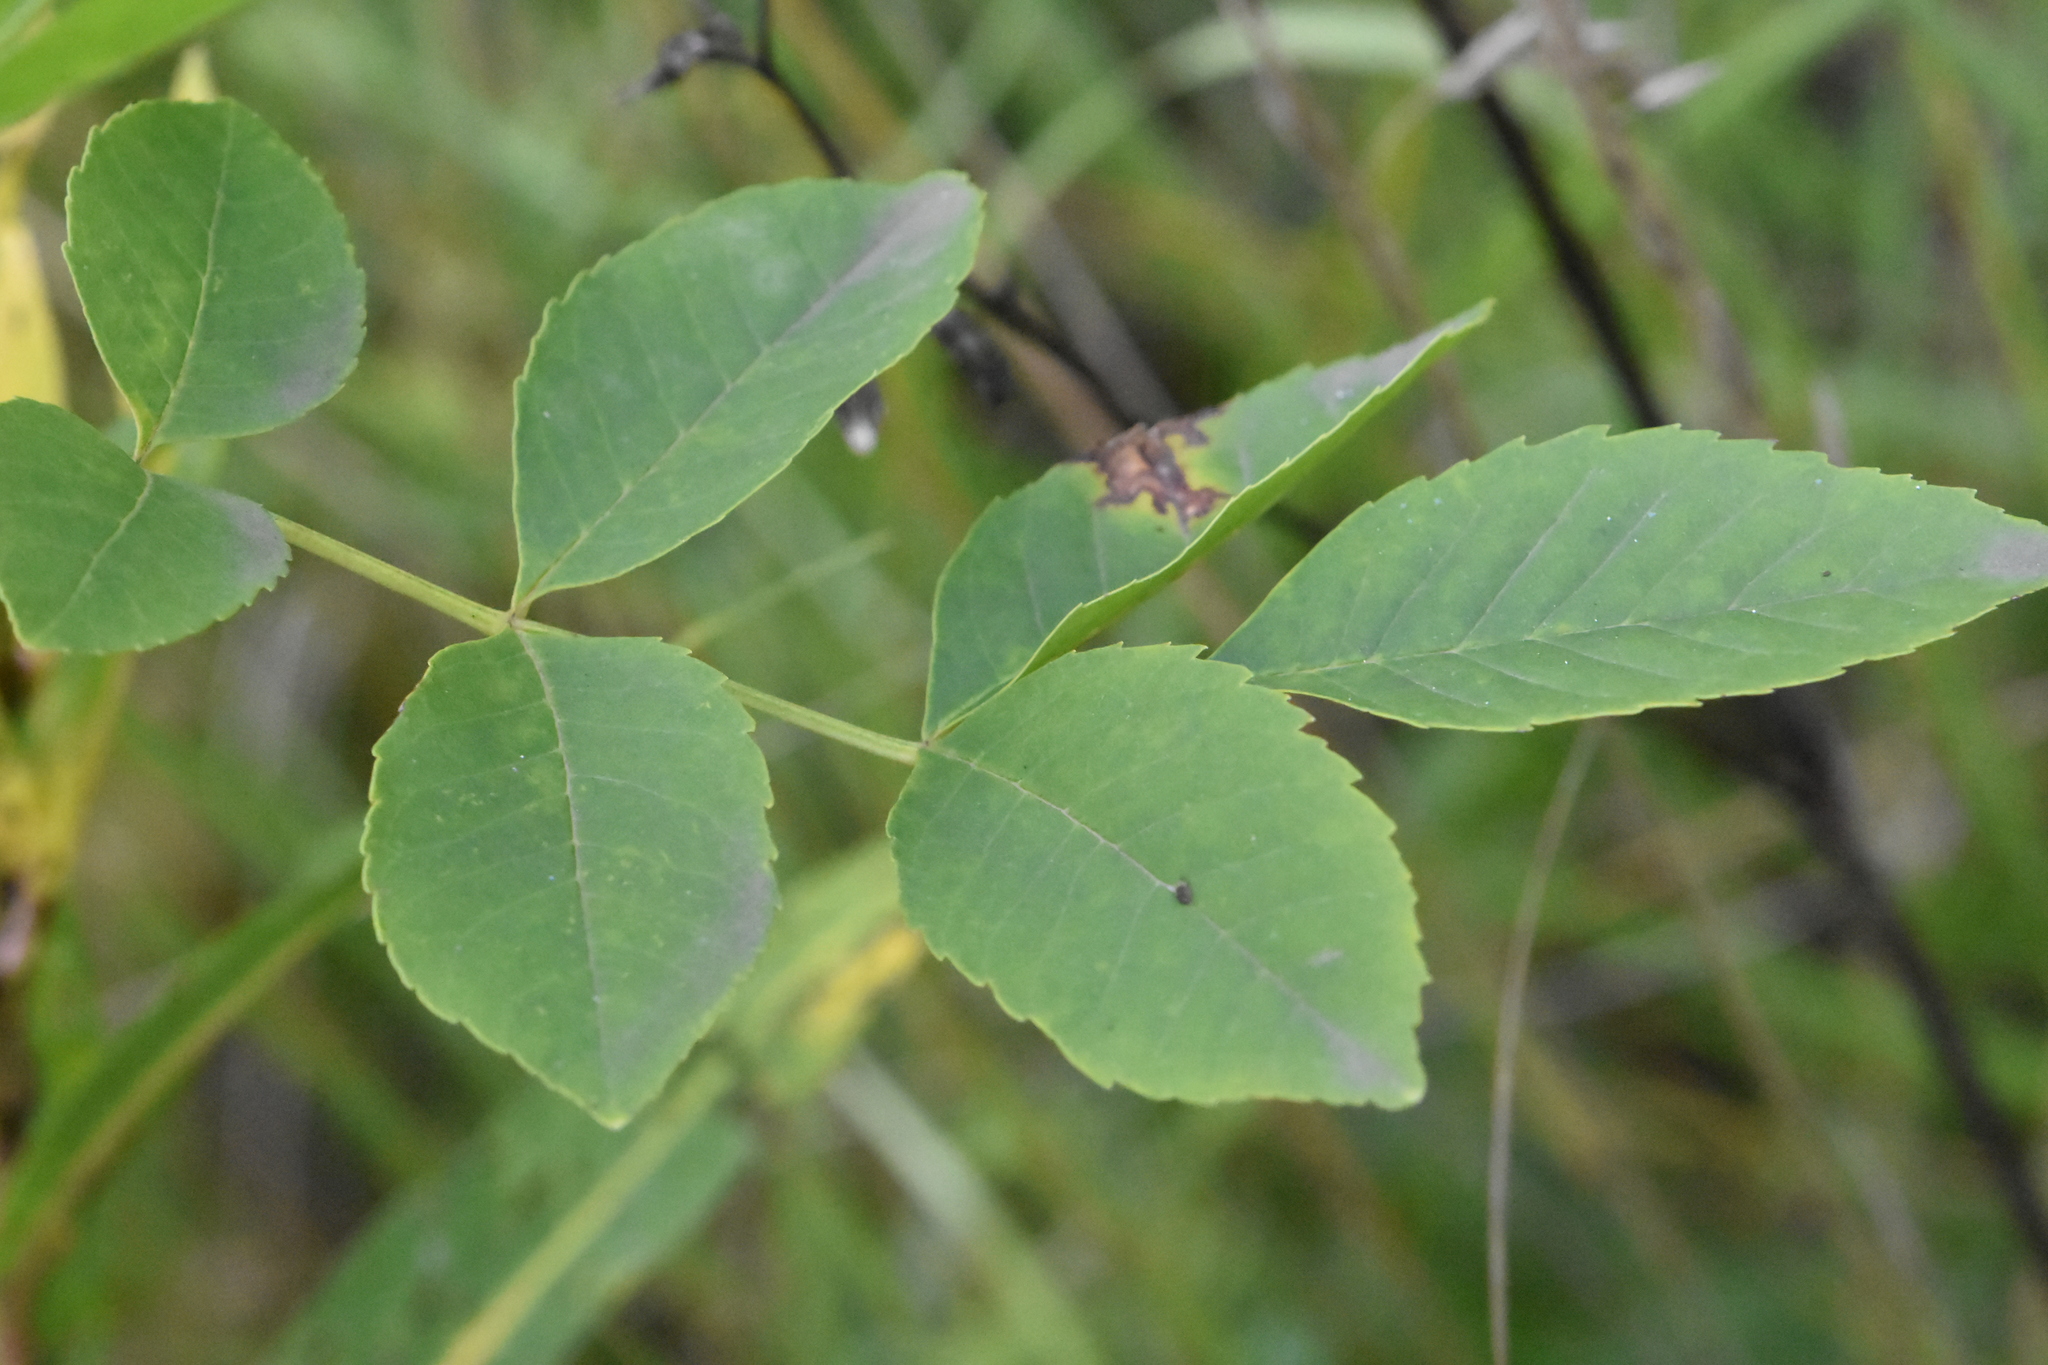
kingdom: Plantae
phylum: Tracheophyta
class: Magnoliopsida
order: Lamiales
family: Oleaceae
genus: Fraxinus
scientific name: Fraxinus pennsylvanica
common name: Green ash
